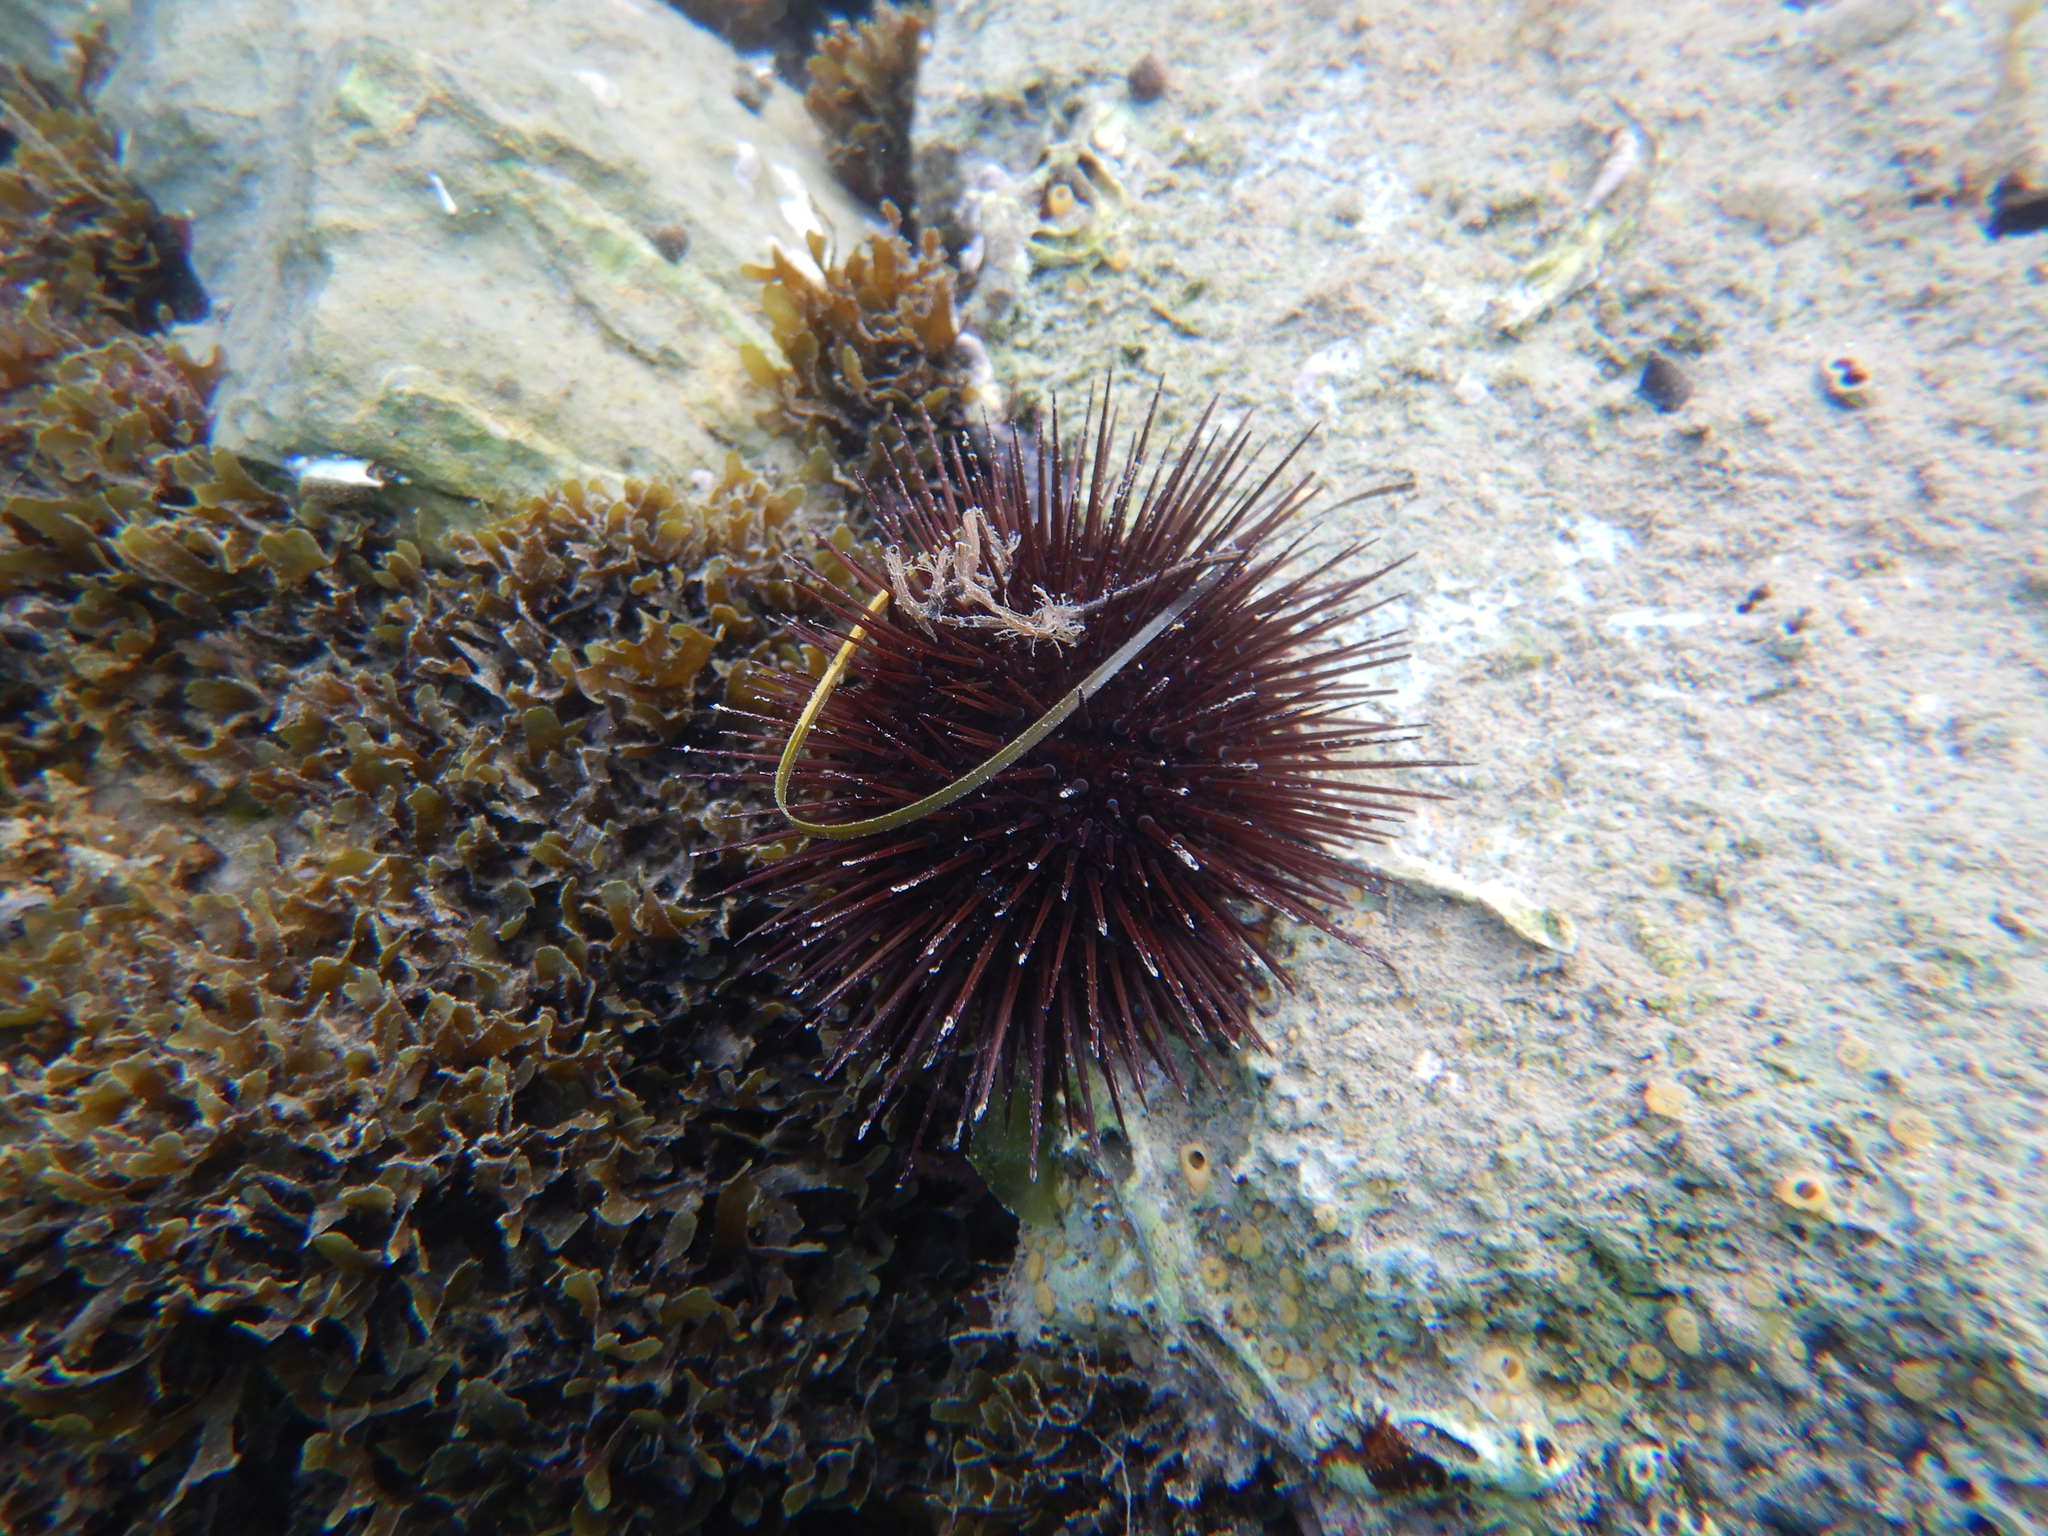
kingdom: Animalia
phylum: Echinodermata
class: Echinoidea
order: Camarodonta
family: Parechinidae
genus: Paracentrotus
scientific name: Paracentrotus lividus
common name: Purple sea urchin
